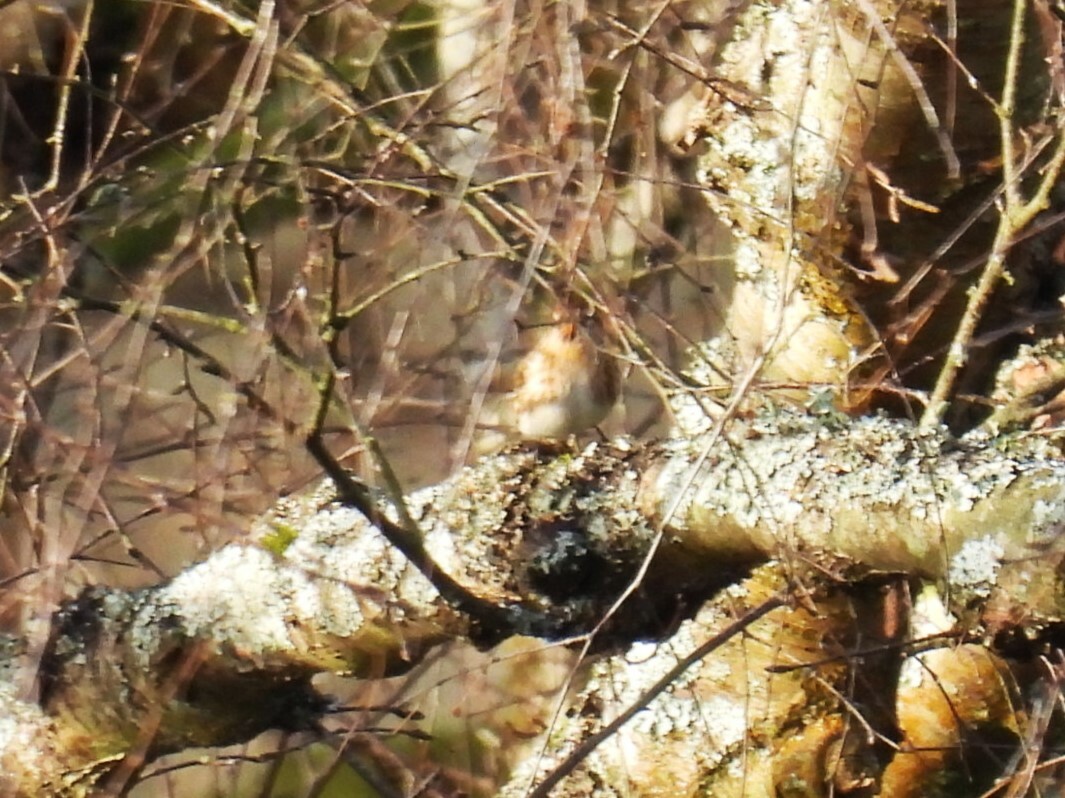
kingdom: Animalia
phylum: Chordata
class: Aves
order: Passeriformes
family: Fringillidae
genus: Acanthis
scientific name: Acanthis flammea
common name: Common redpoll
